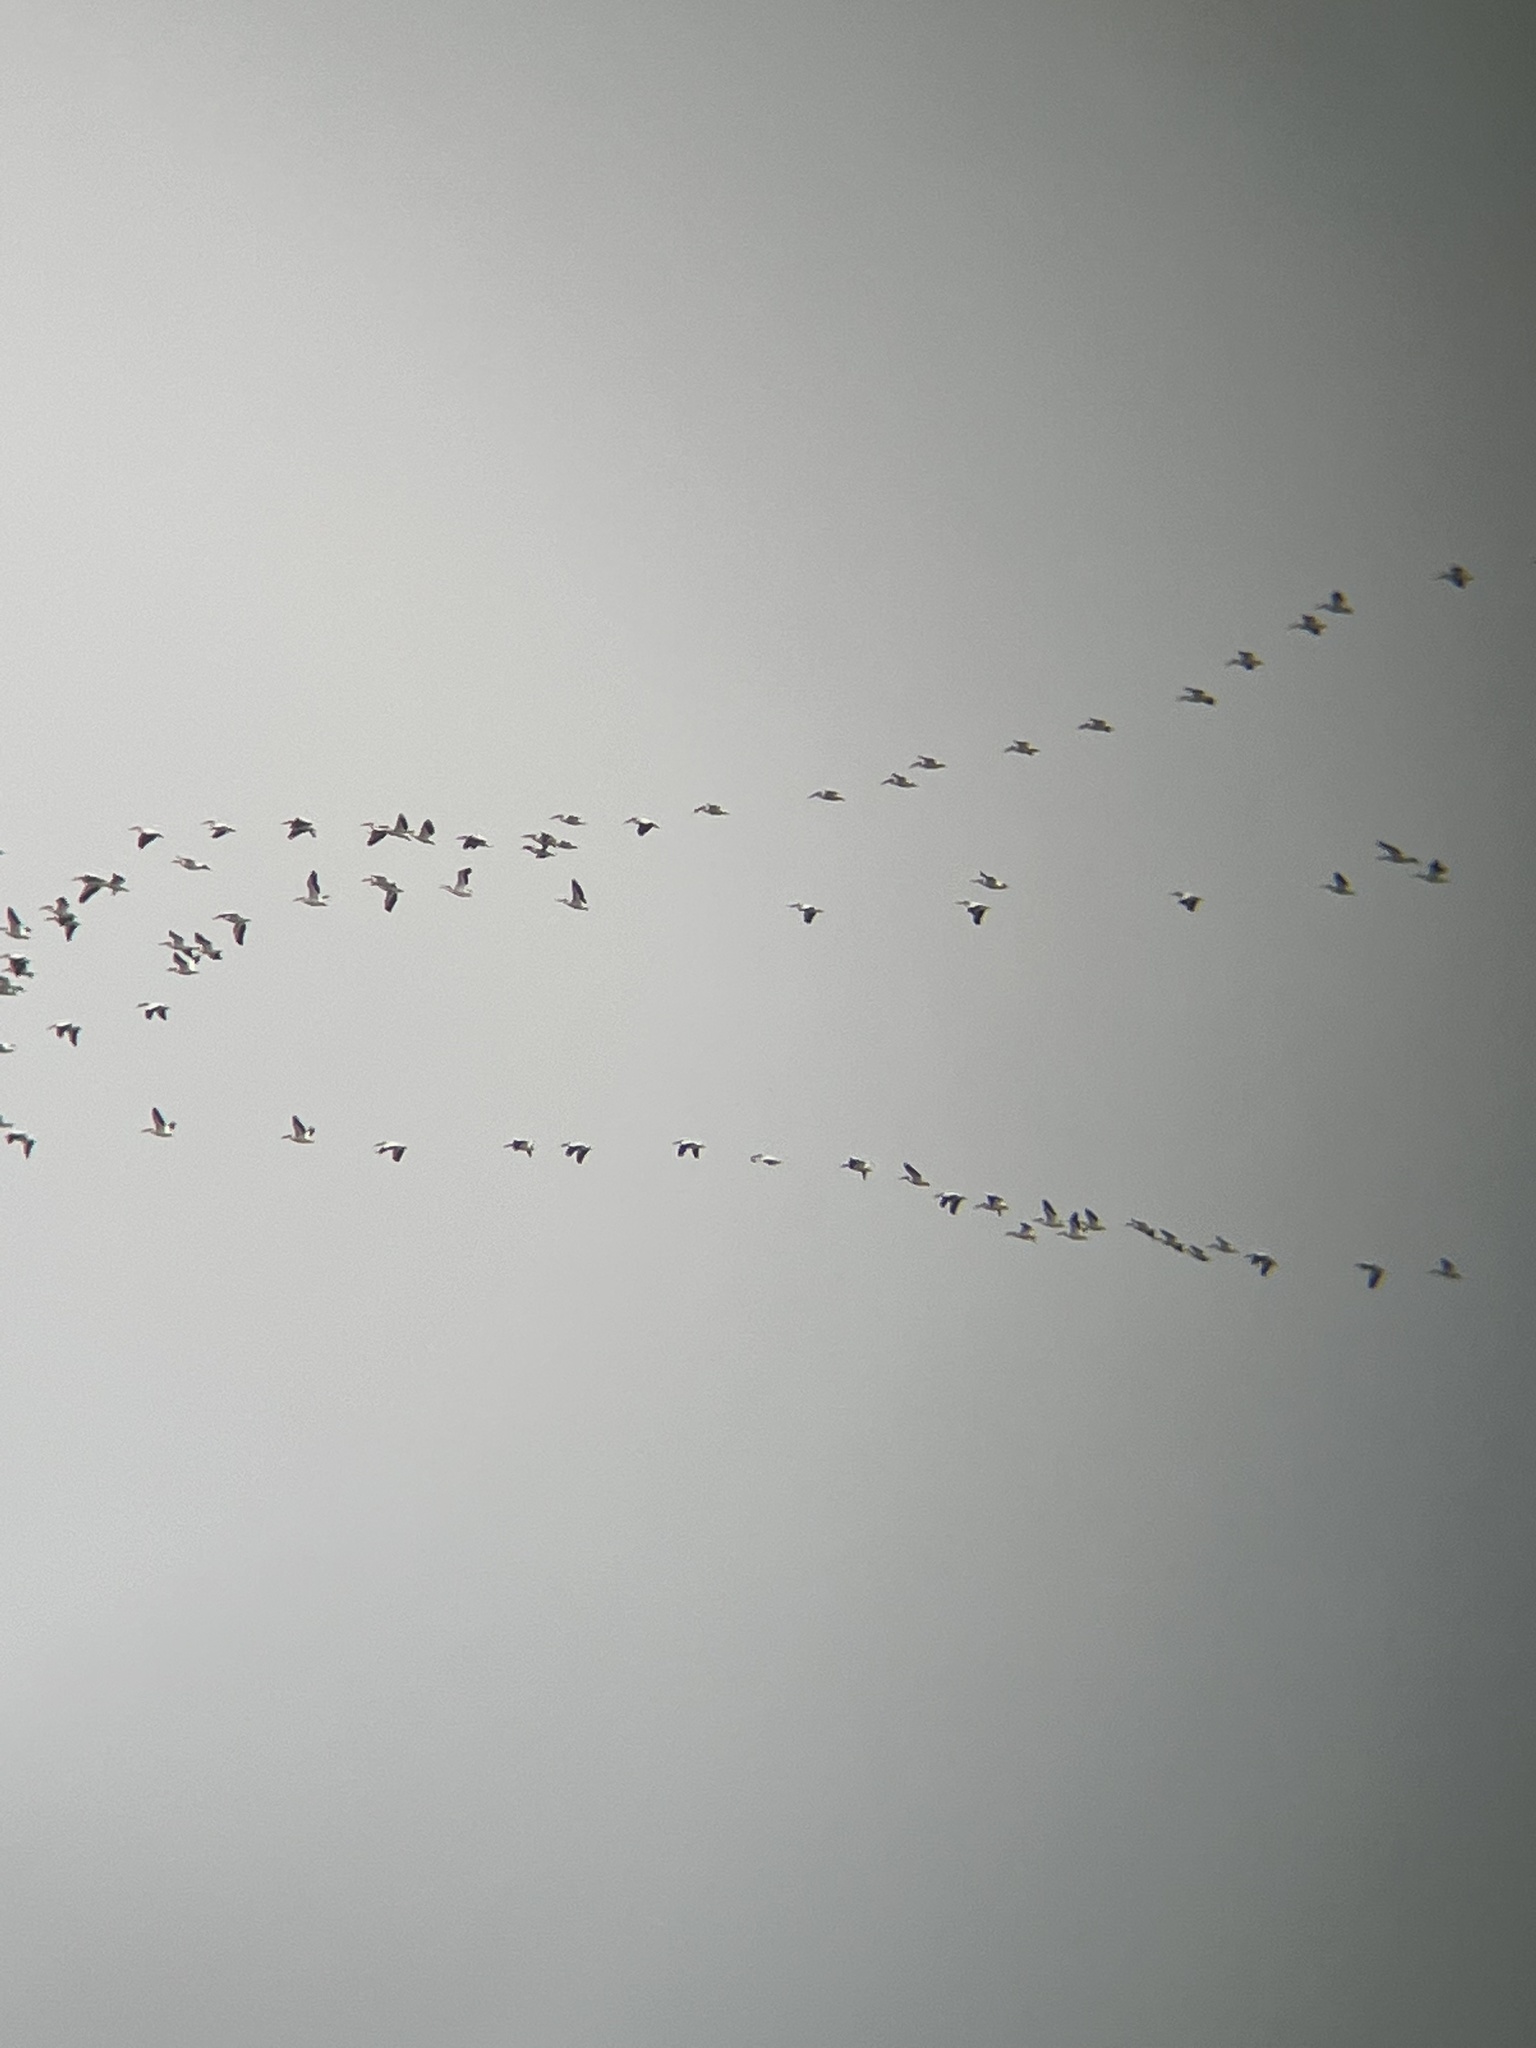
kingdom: Animalia
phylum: Chordata
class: Aves
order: Pelecaniformes
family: Pelecanidae
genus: Pelecanus
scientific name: Pelecanus erythrorhynchos
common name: American white pelican
